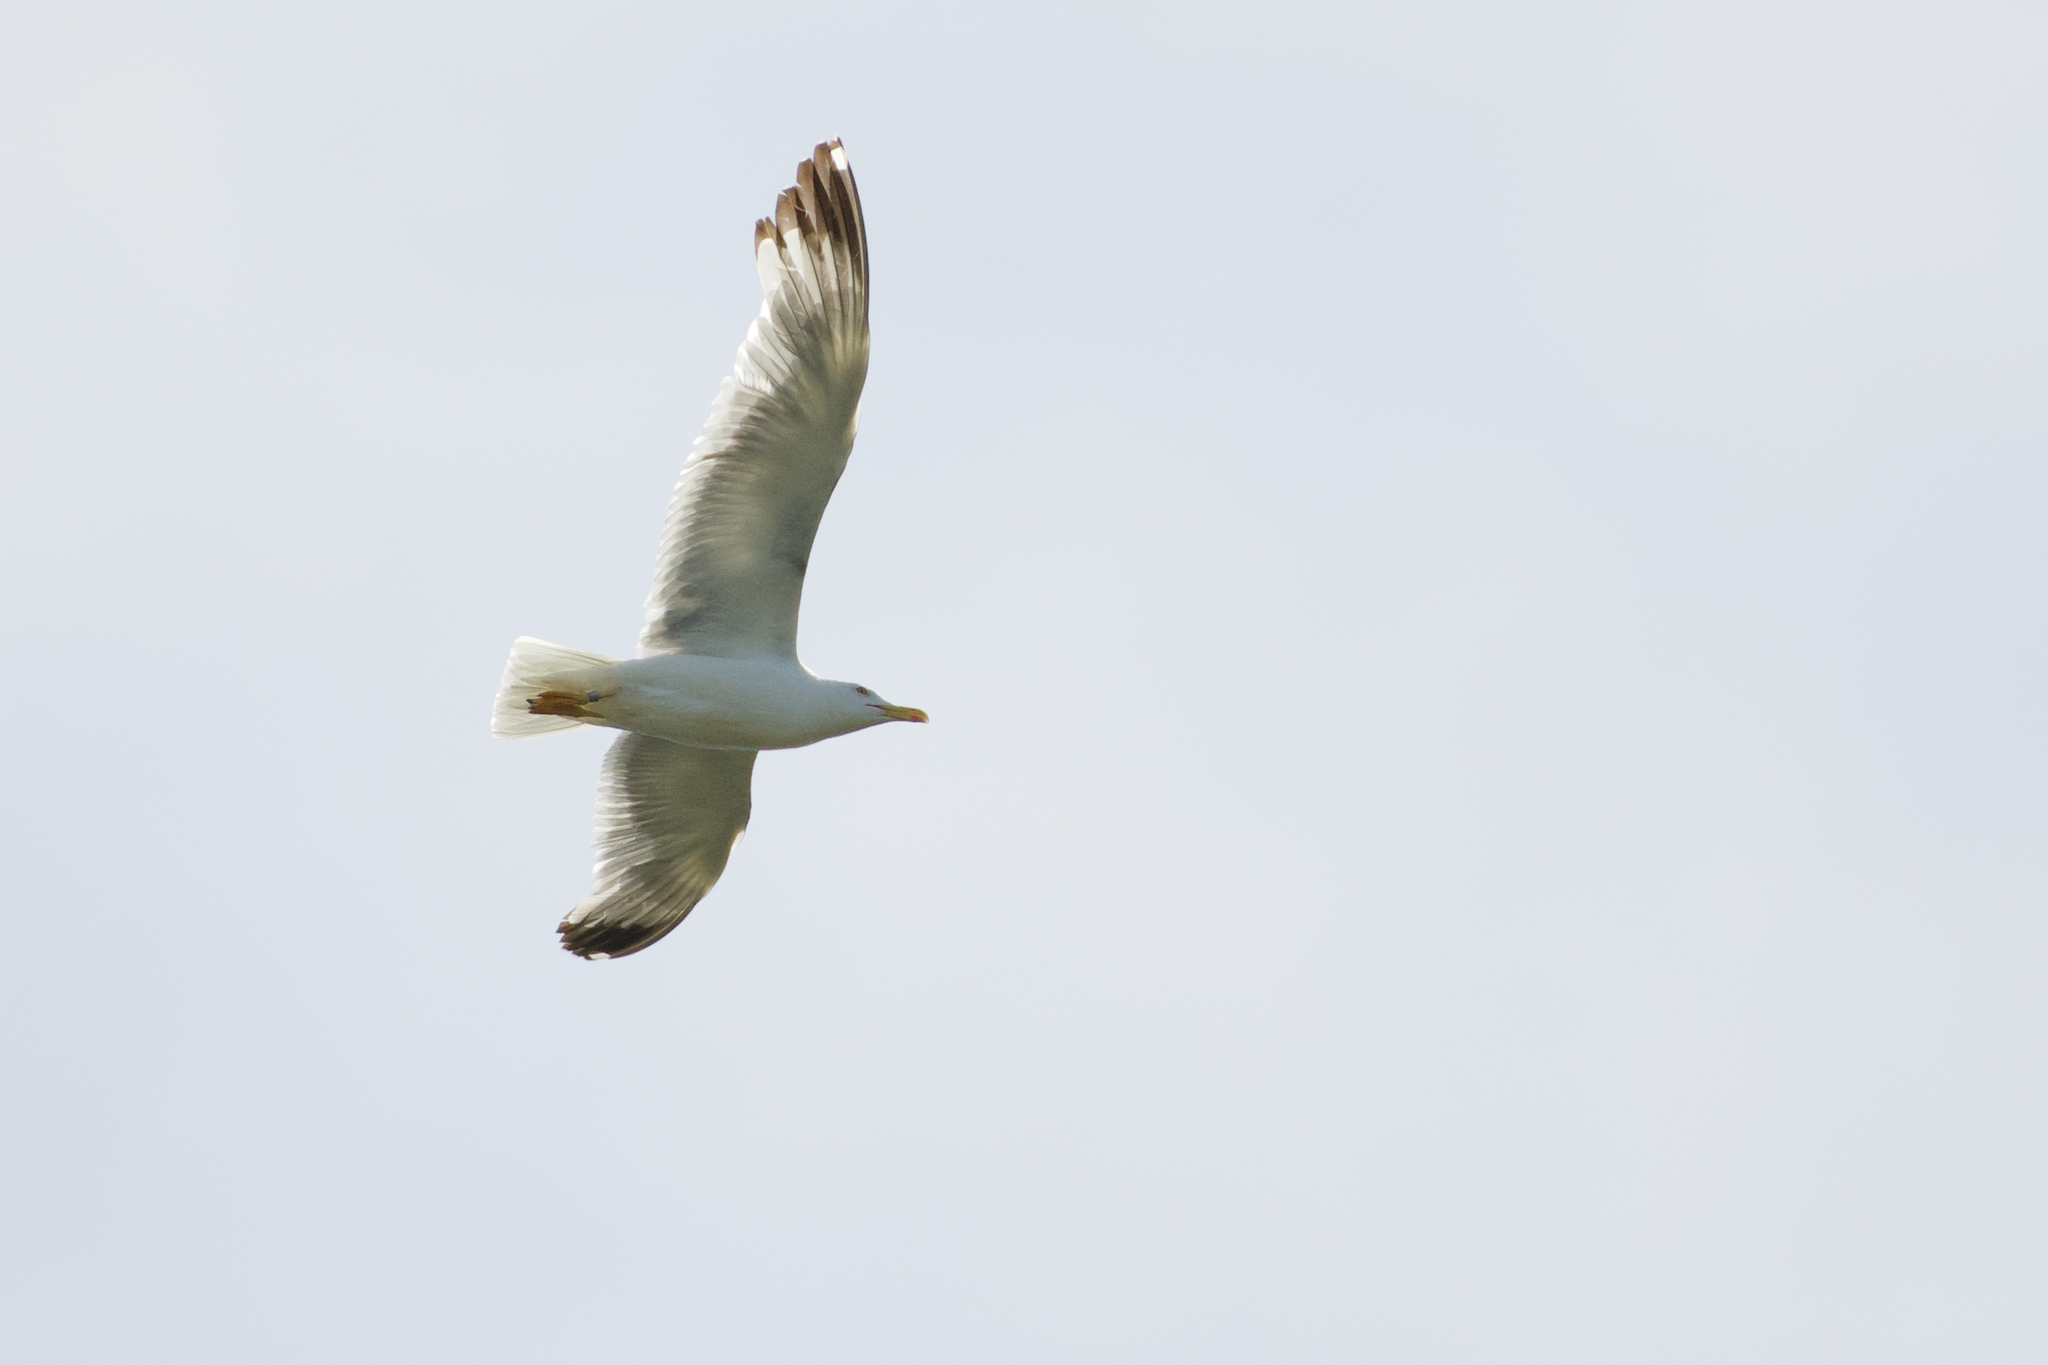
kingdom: Animalia
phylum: Chordata
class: Aves
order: Charadriiformes
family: Laridae
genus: Larus
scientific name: Larus michahellis
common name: Yellow-legged gull
